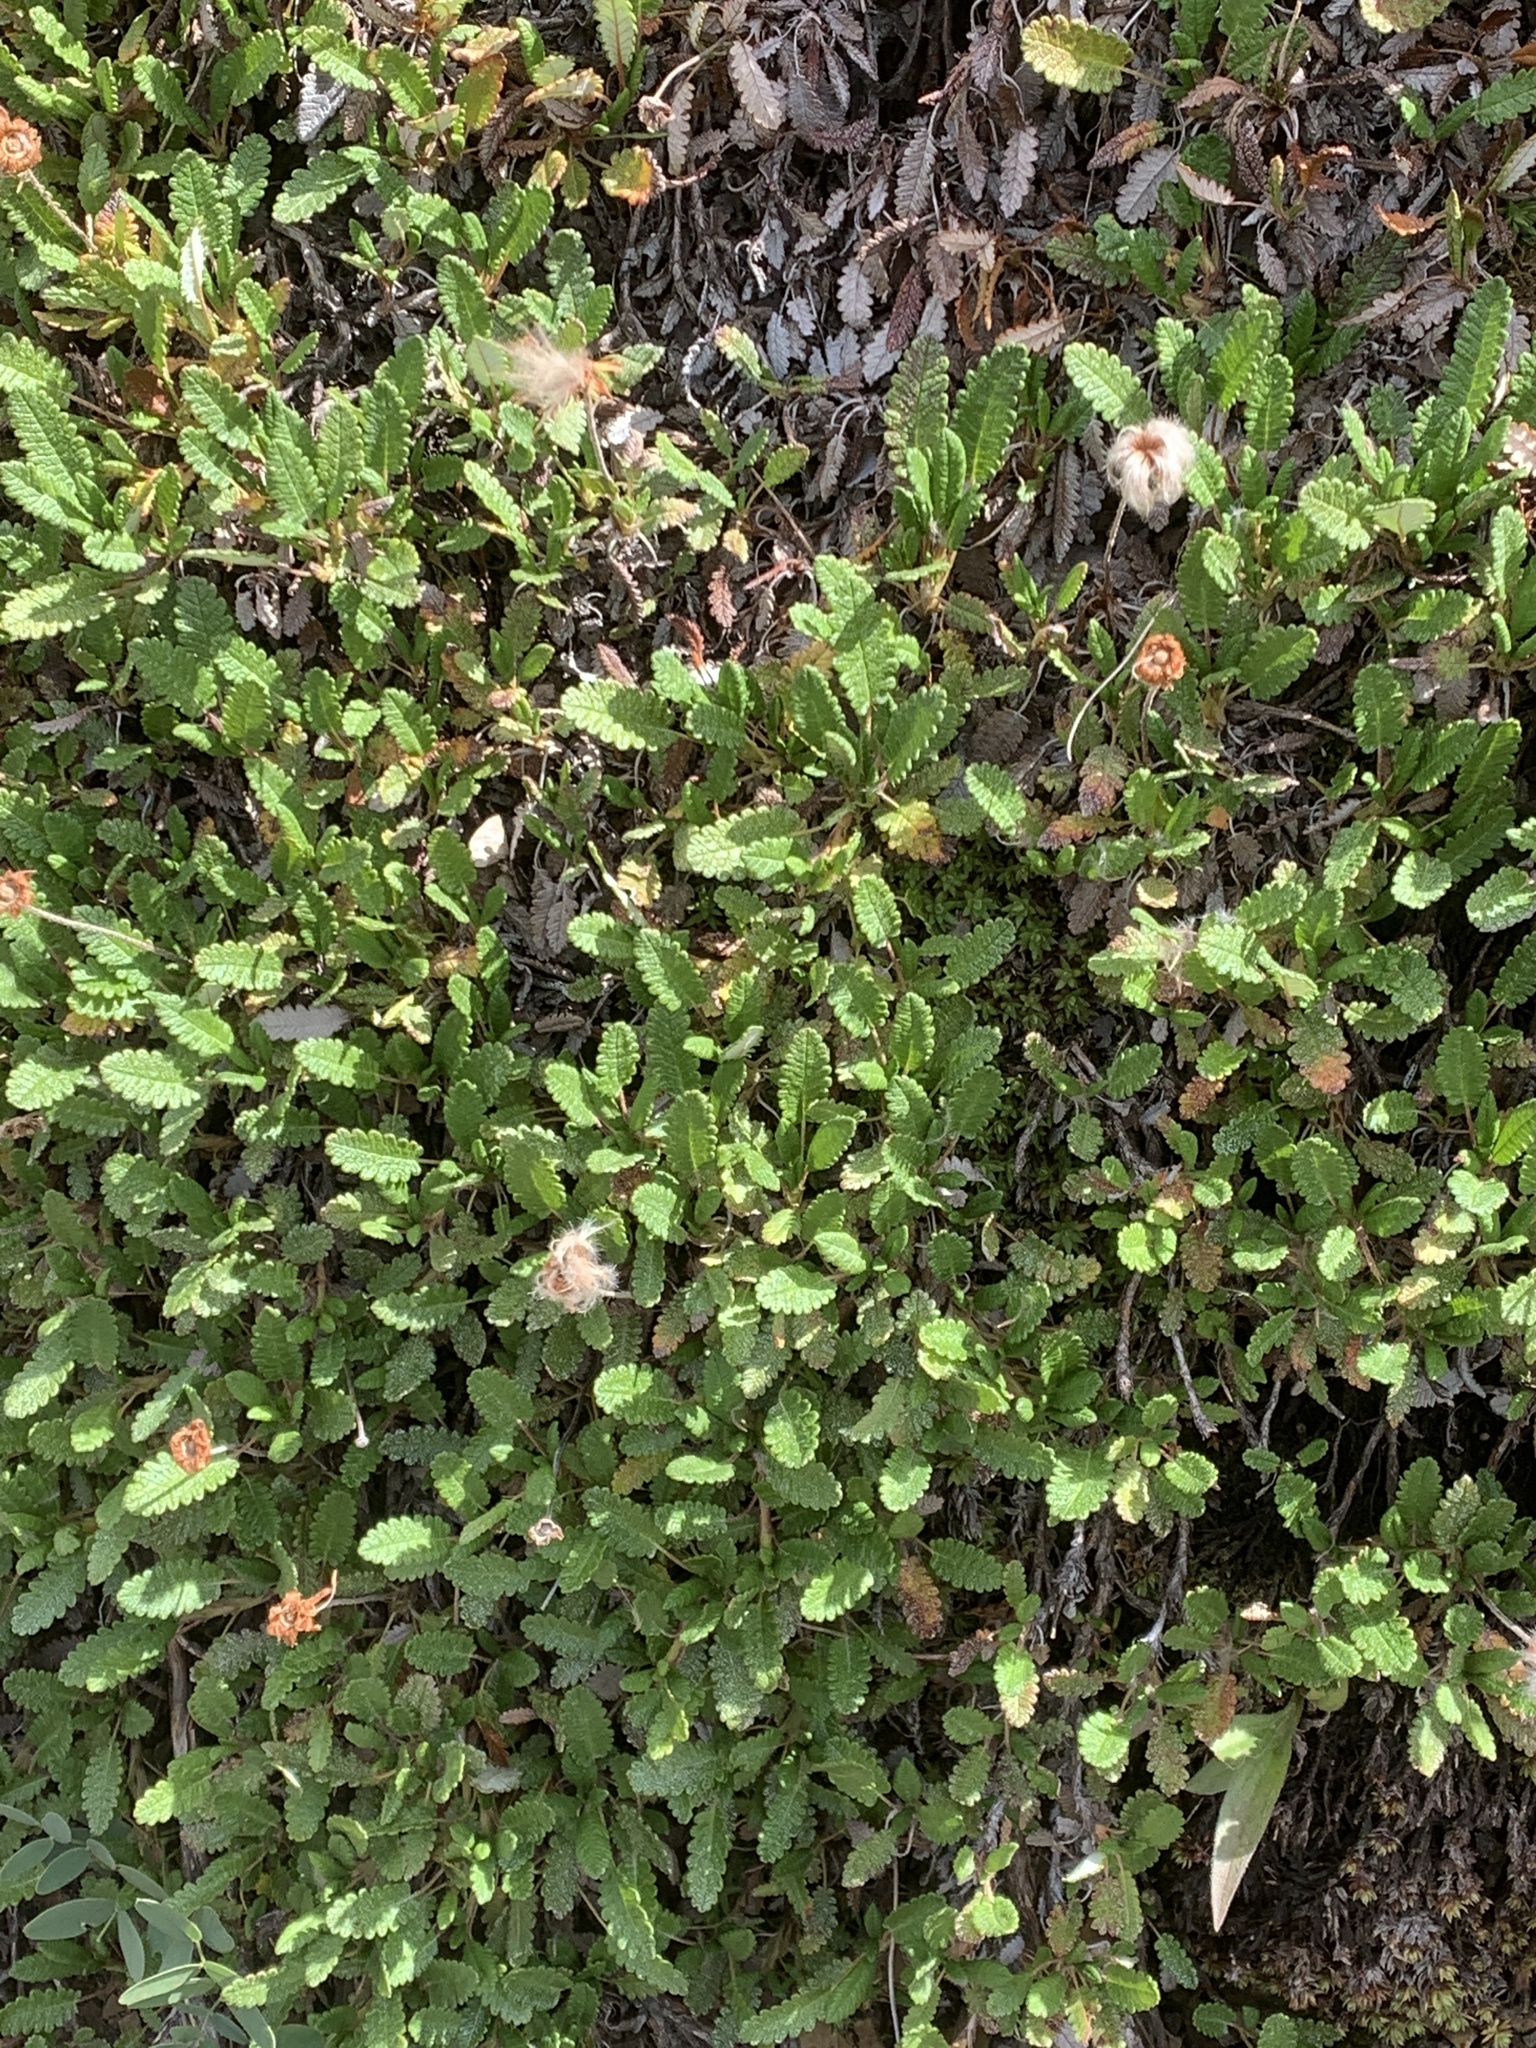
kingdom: Plantae
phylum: Tracheophyta
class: Magnoliopsida
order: Rosales
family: Rosaceae
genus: Dryas
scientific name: Dryas octopetala
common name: Eight-petal mountain-avens
